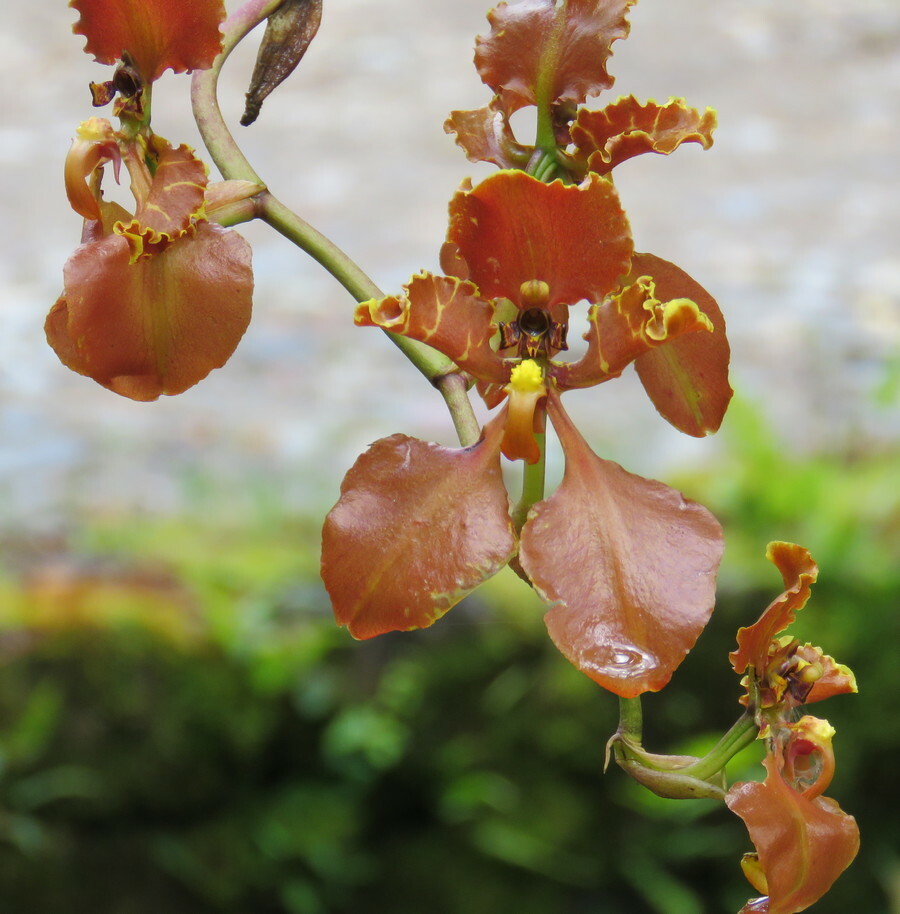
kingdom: Plantae
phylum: Tracheophyta
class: Liliopsida
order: Asparagales
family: Orchidaceae
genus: Cyrtochilum
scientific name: Cyrtochilum trifurcatum
